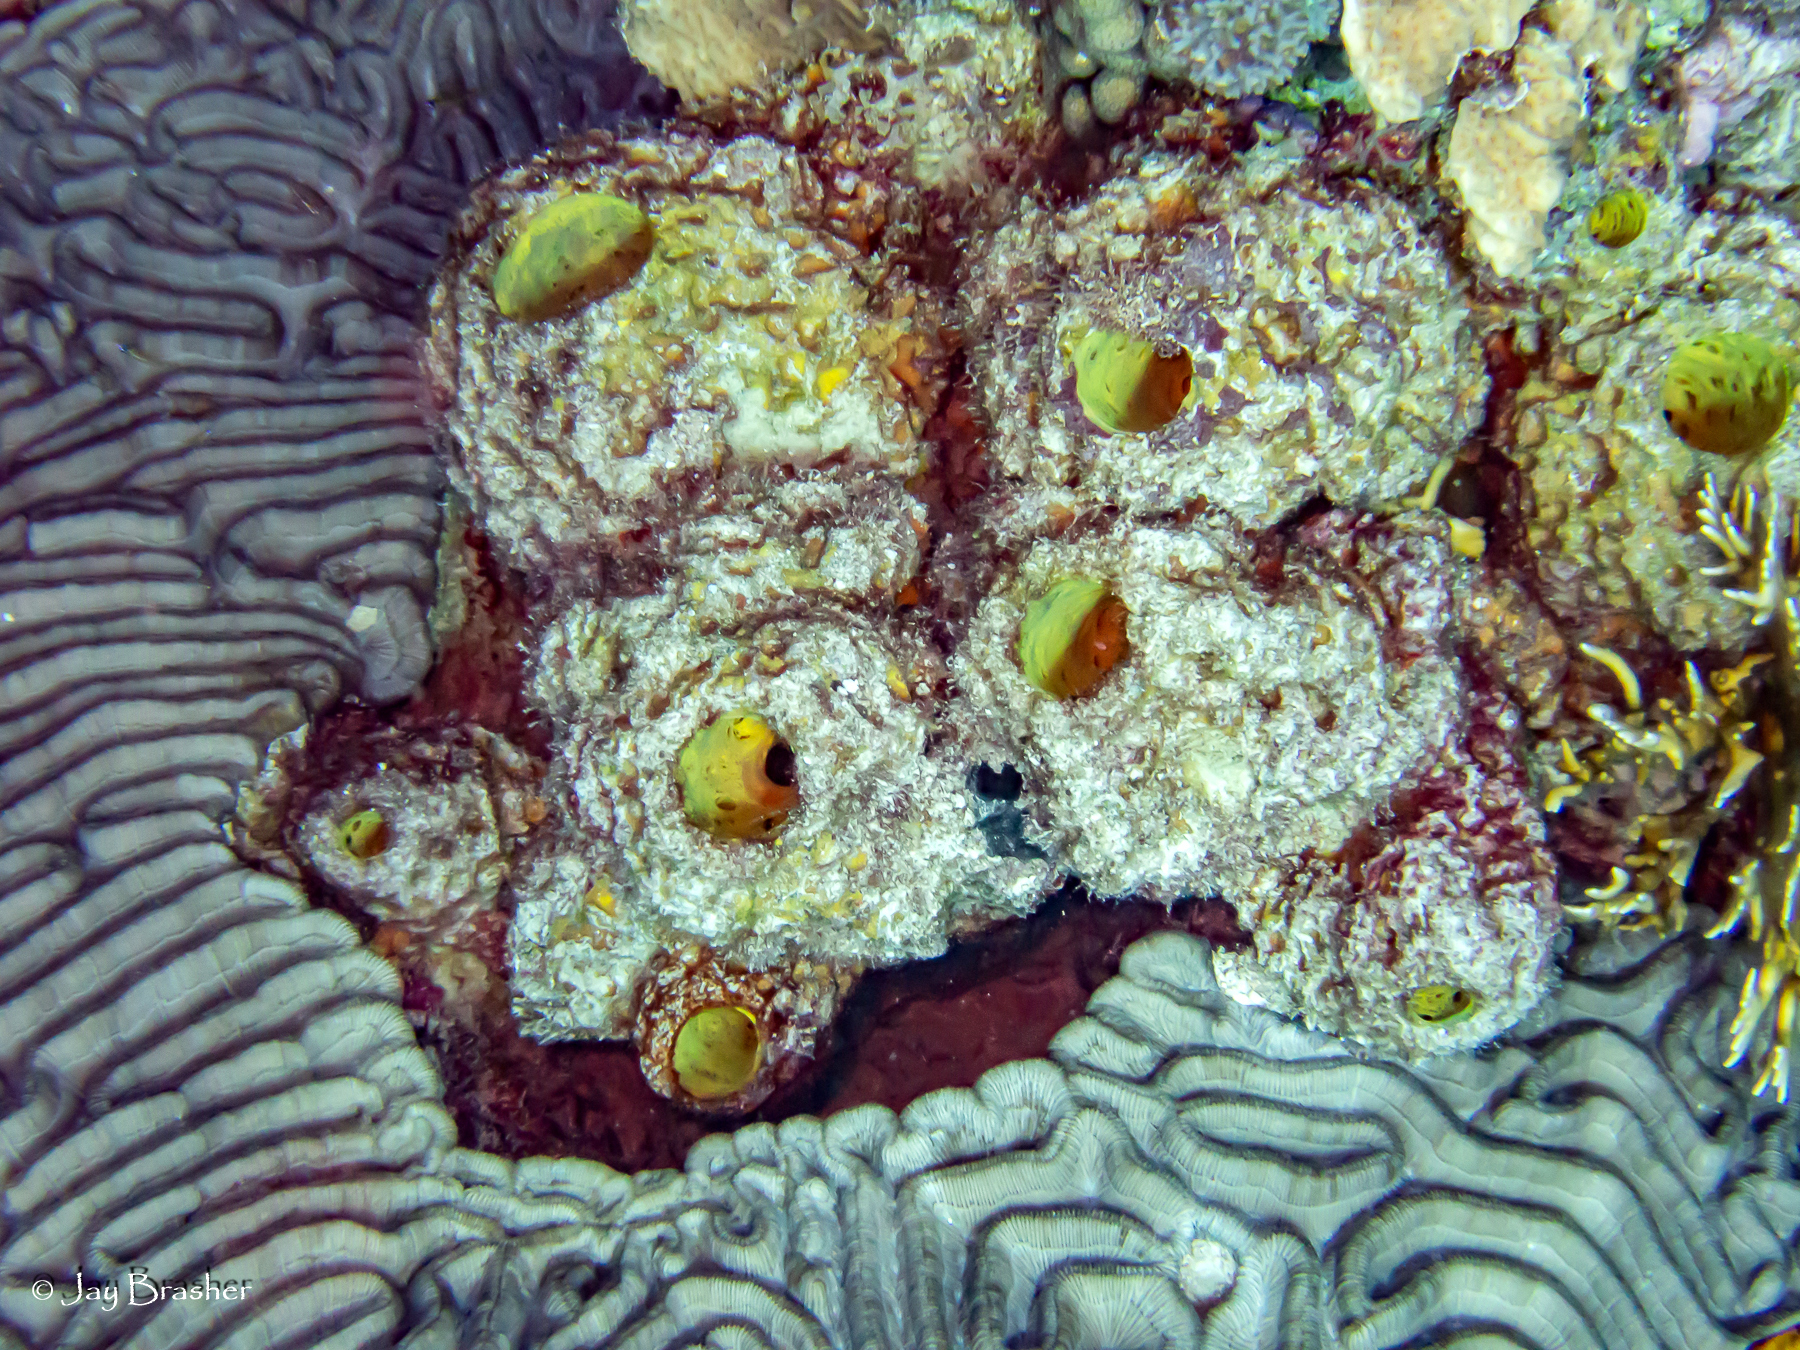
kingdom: Animalia
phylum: Cnidaria
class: Anthozoa
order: Scleractinia
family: Faviidae
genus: Colpophyllia
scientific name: Colpophyllia natans
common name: Boulder brain coral
